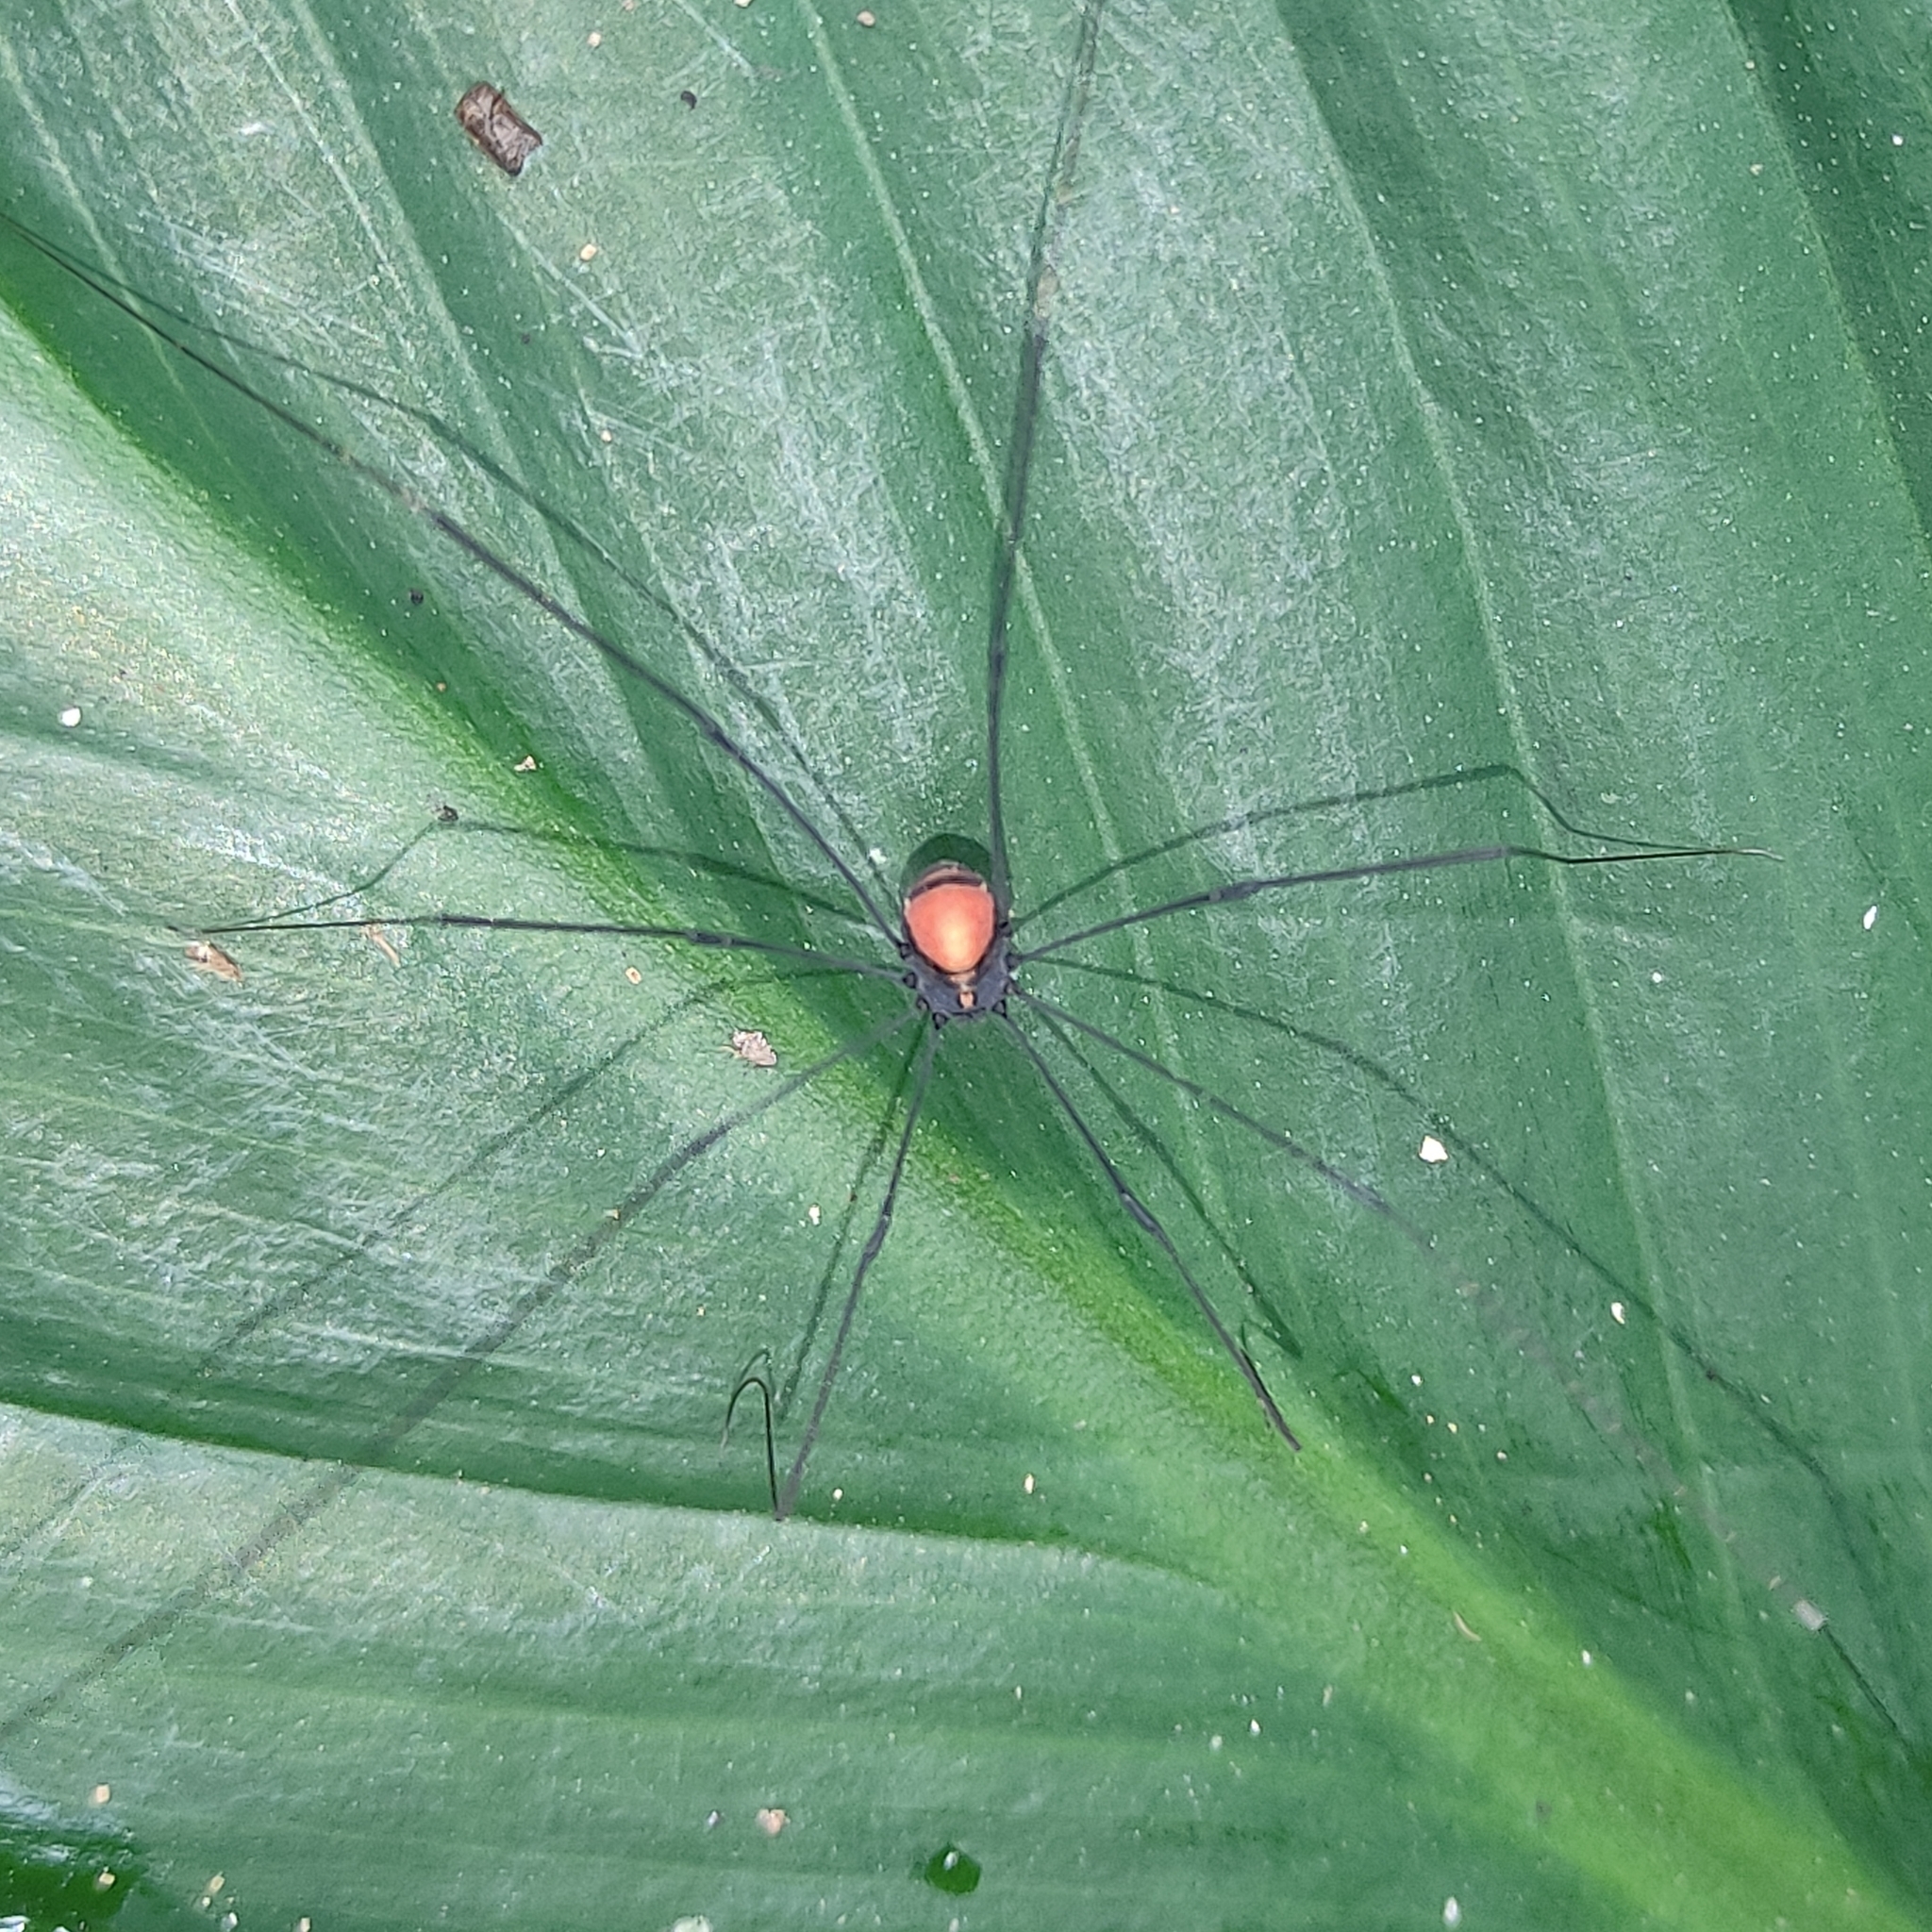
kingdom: Animalia
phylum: Arthropoda
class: Arachnida
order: Opiliones
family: Sclerosomatidae
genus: Jussara
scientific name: Jussara flamengo
